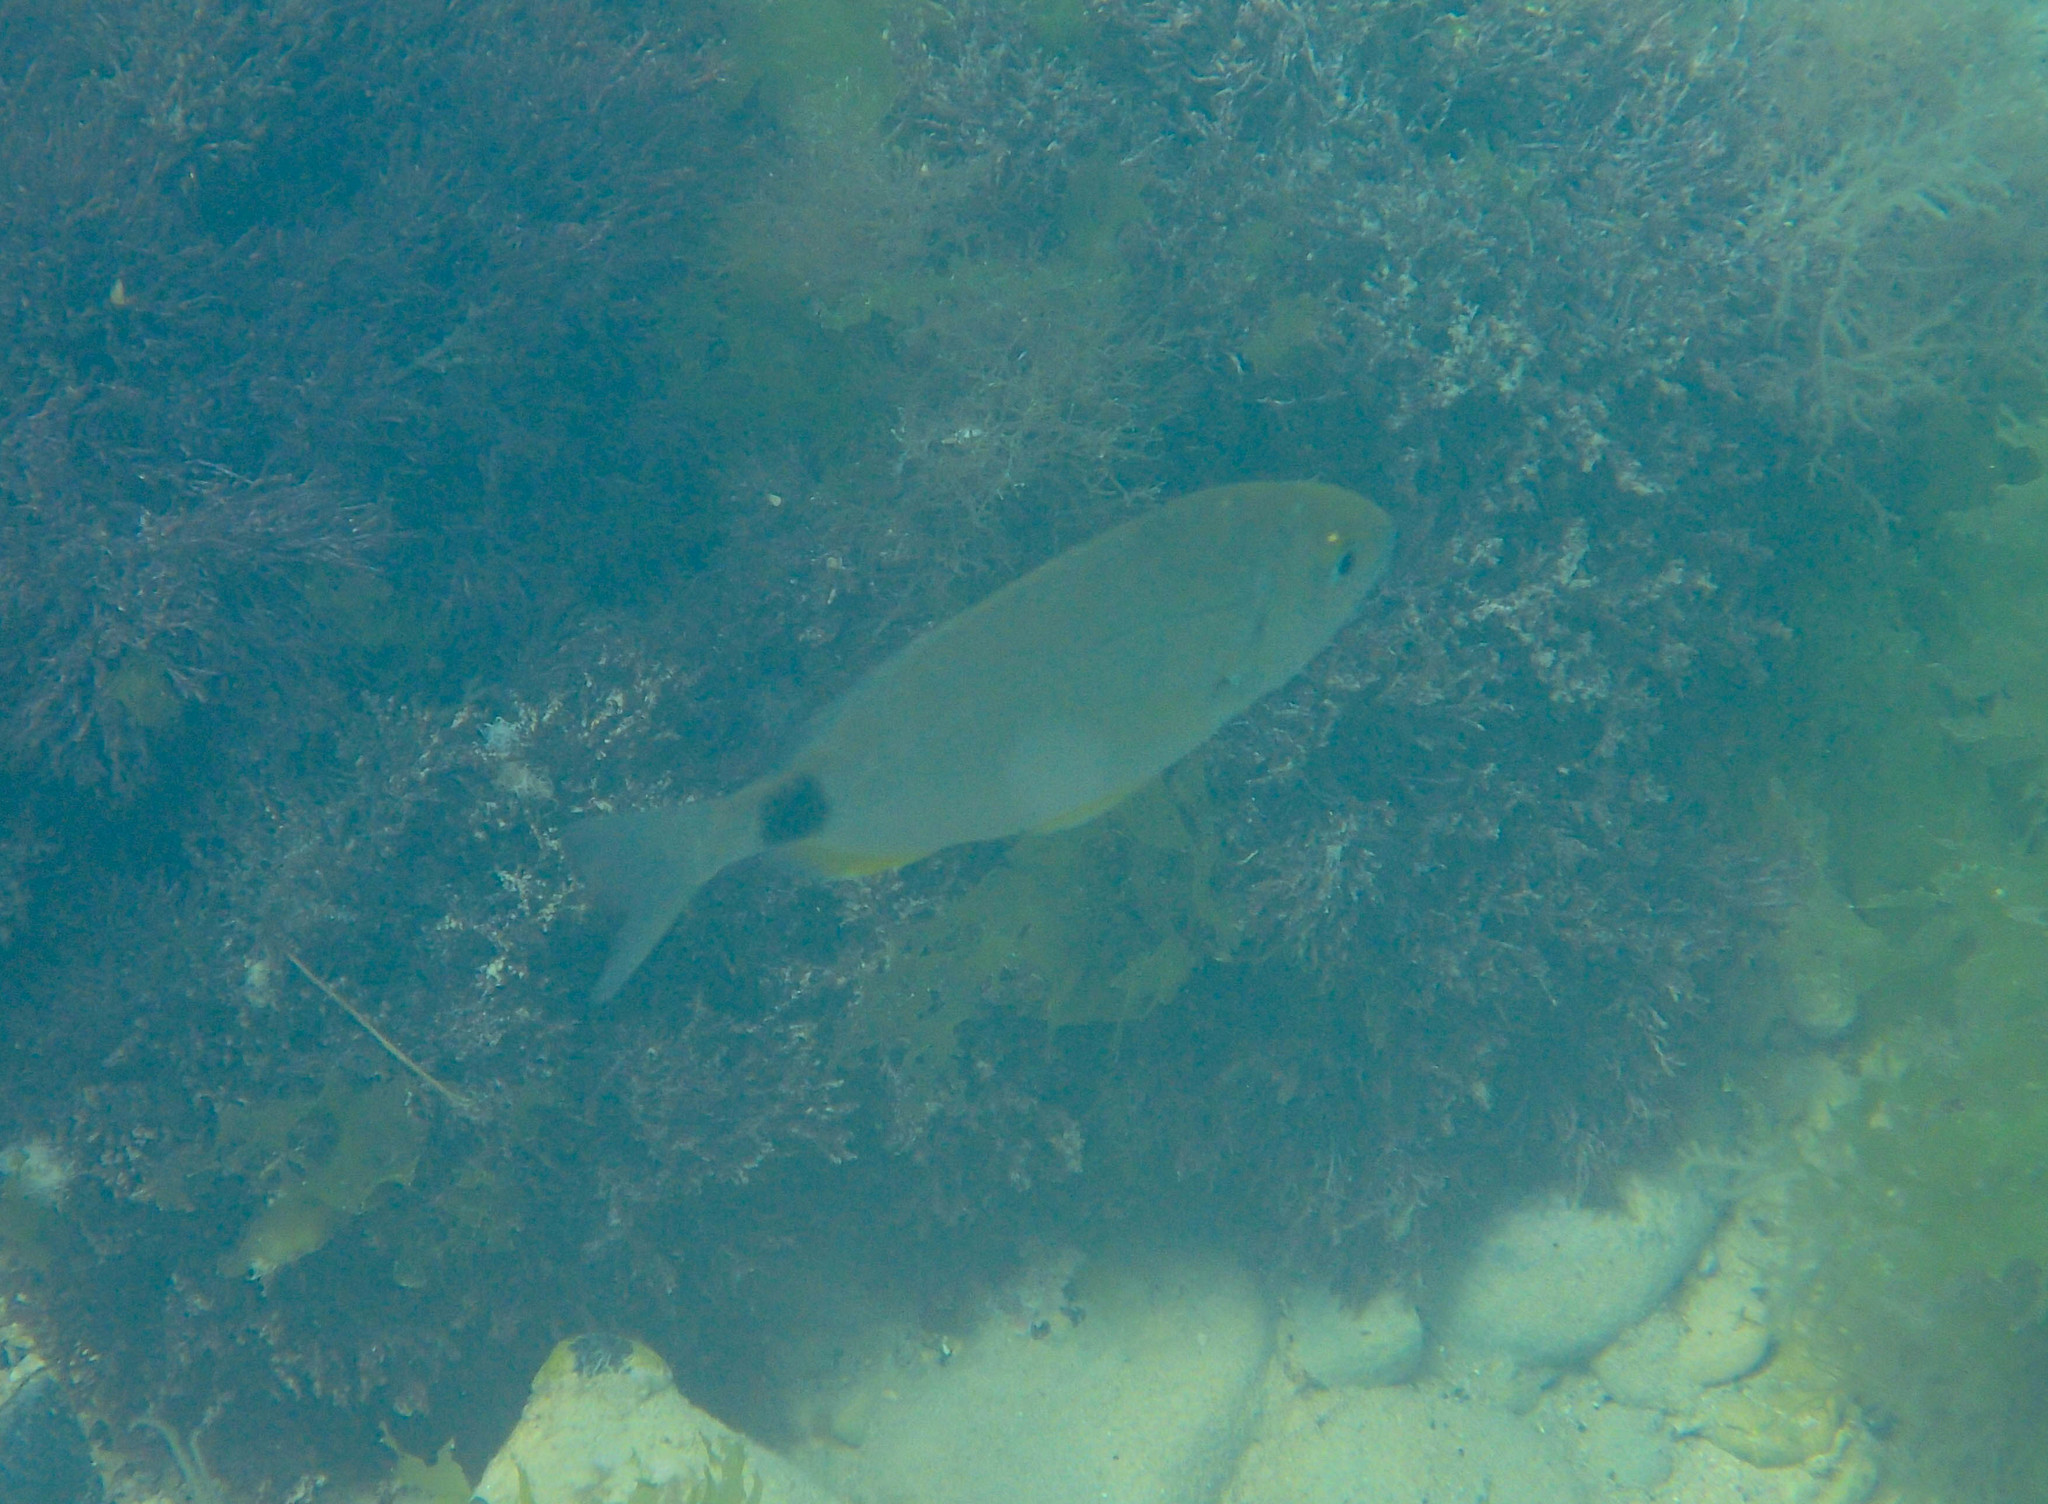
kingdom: Animalia
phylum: Chordata
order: Perciformes
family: Sparidae
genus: Diplodus
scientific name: Diplodus annularis
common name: Annular seabream
